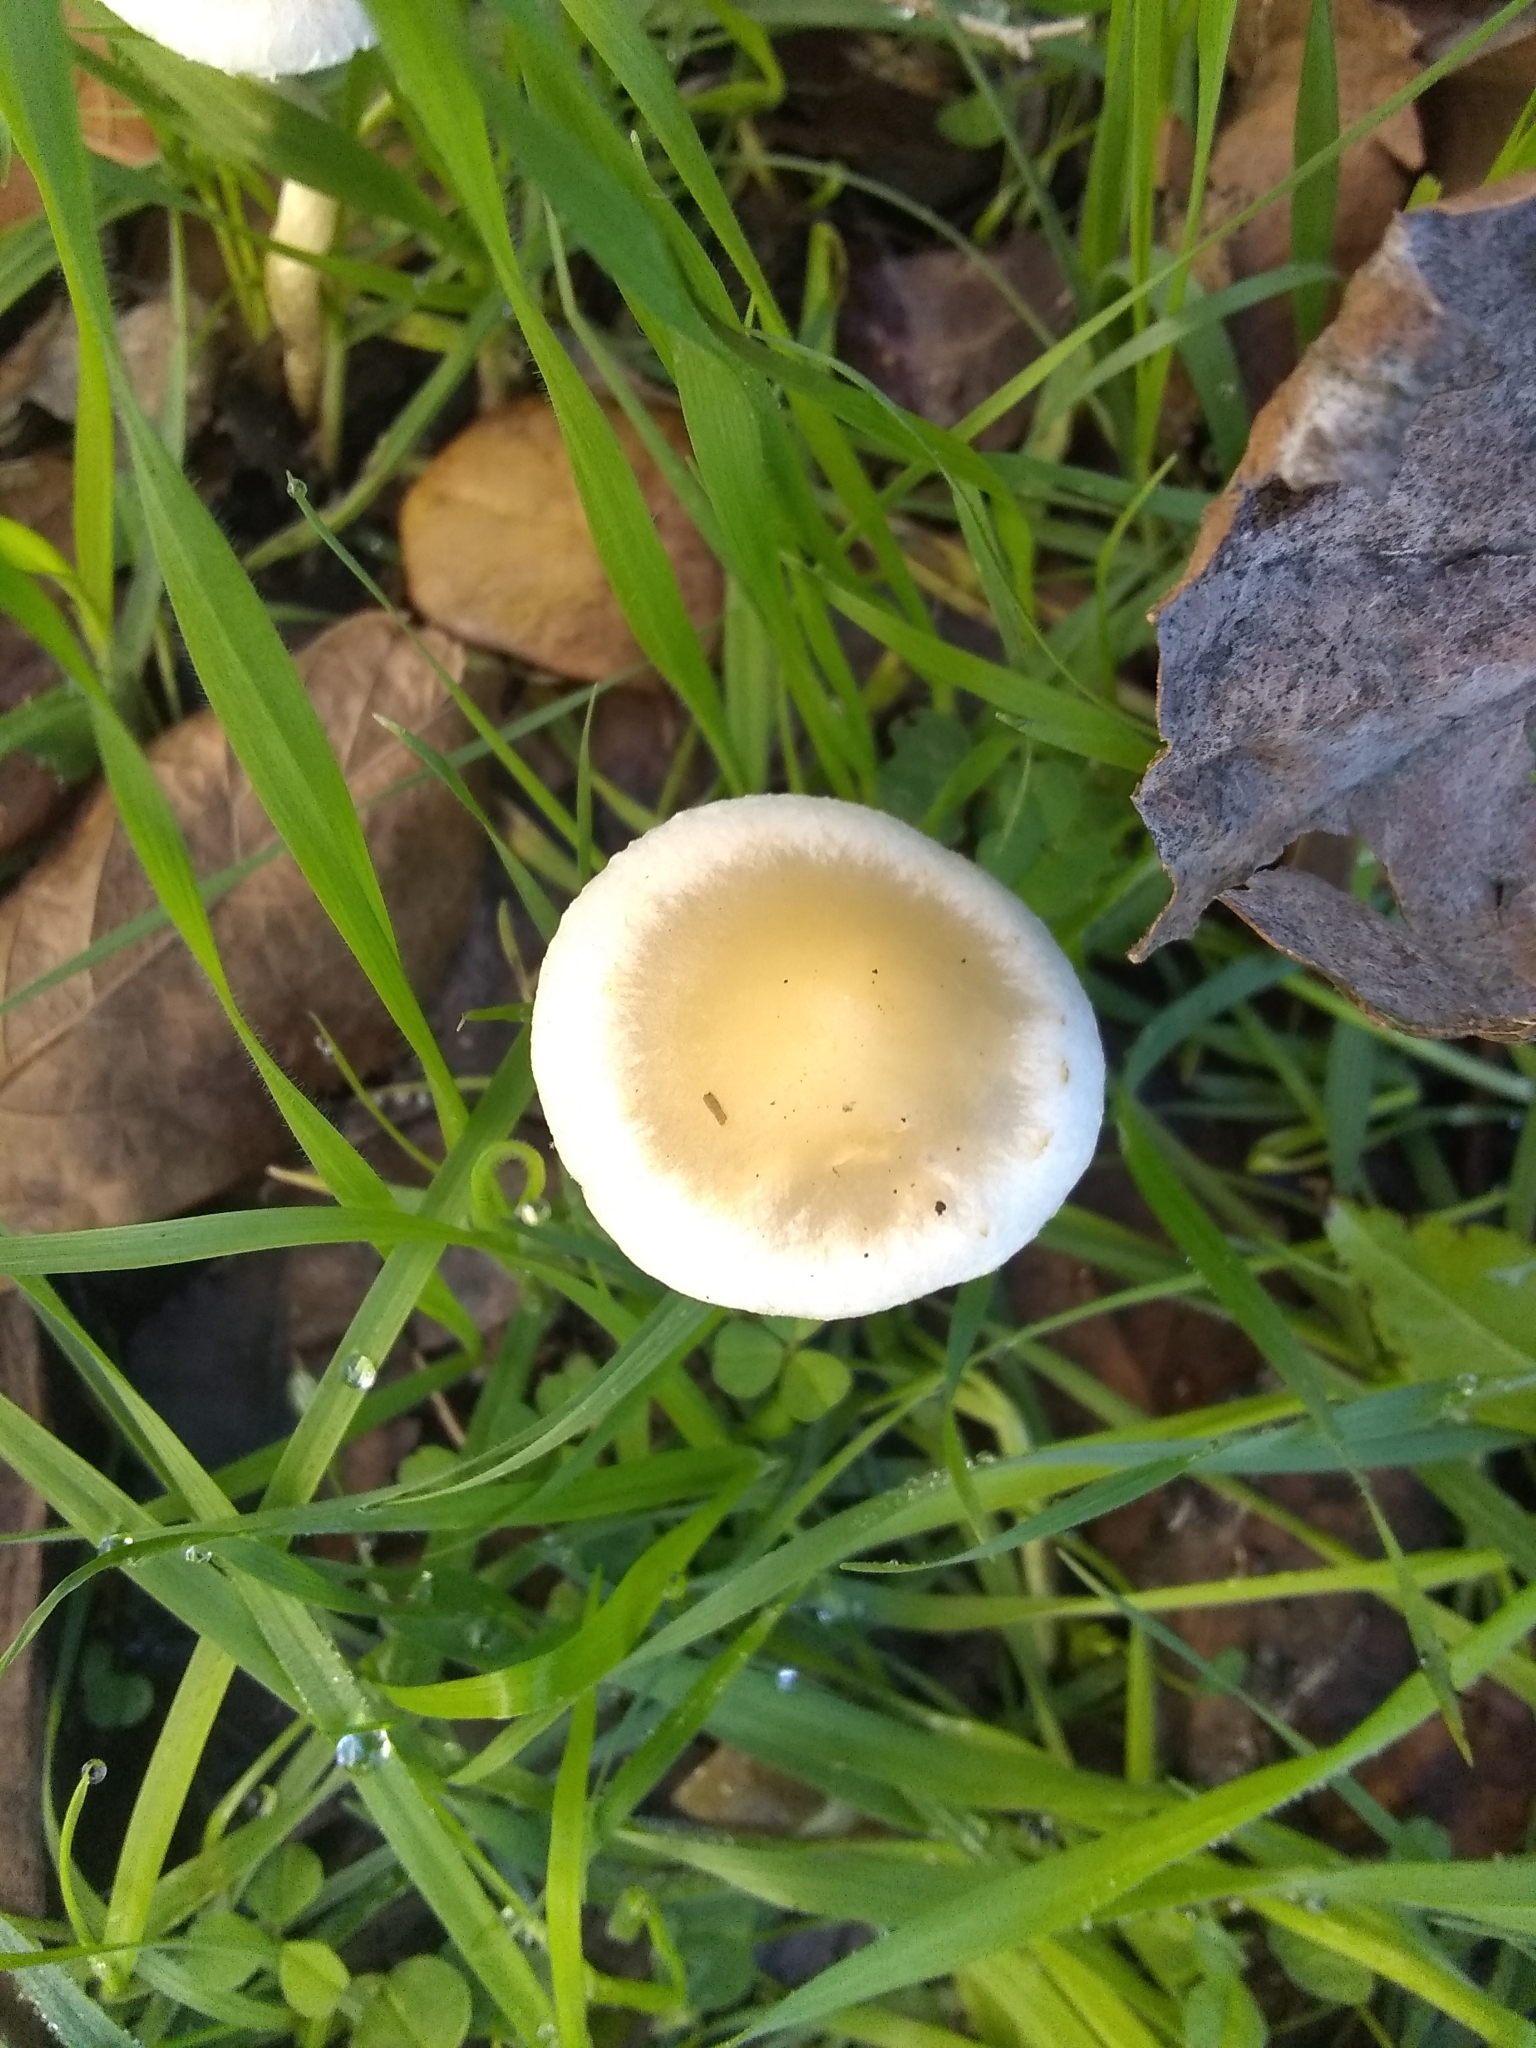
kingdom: Fungi
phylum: Basidiomycota
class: Agaricomycetes
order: Agaricales
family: Strophariaceae
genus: Leratiomyces
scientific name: Leratiomyces percevalii
